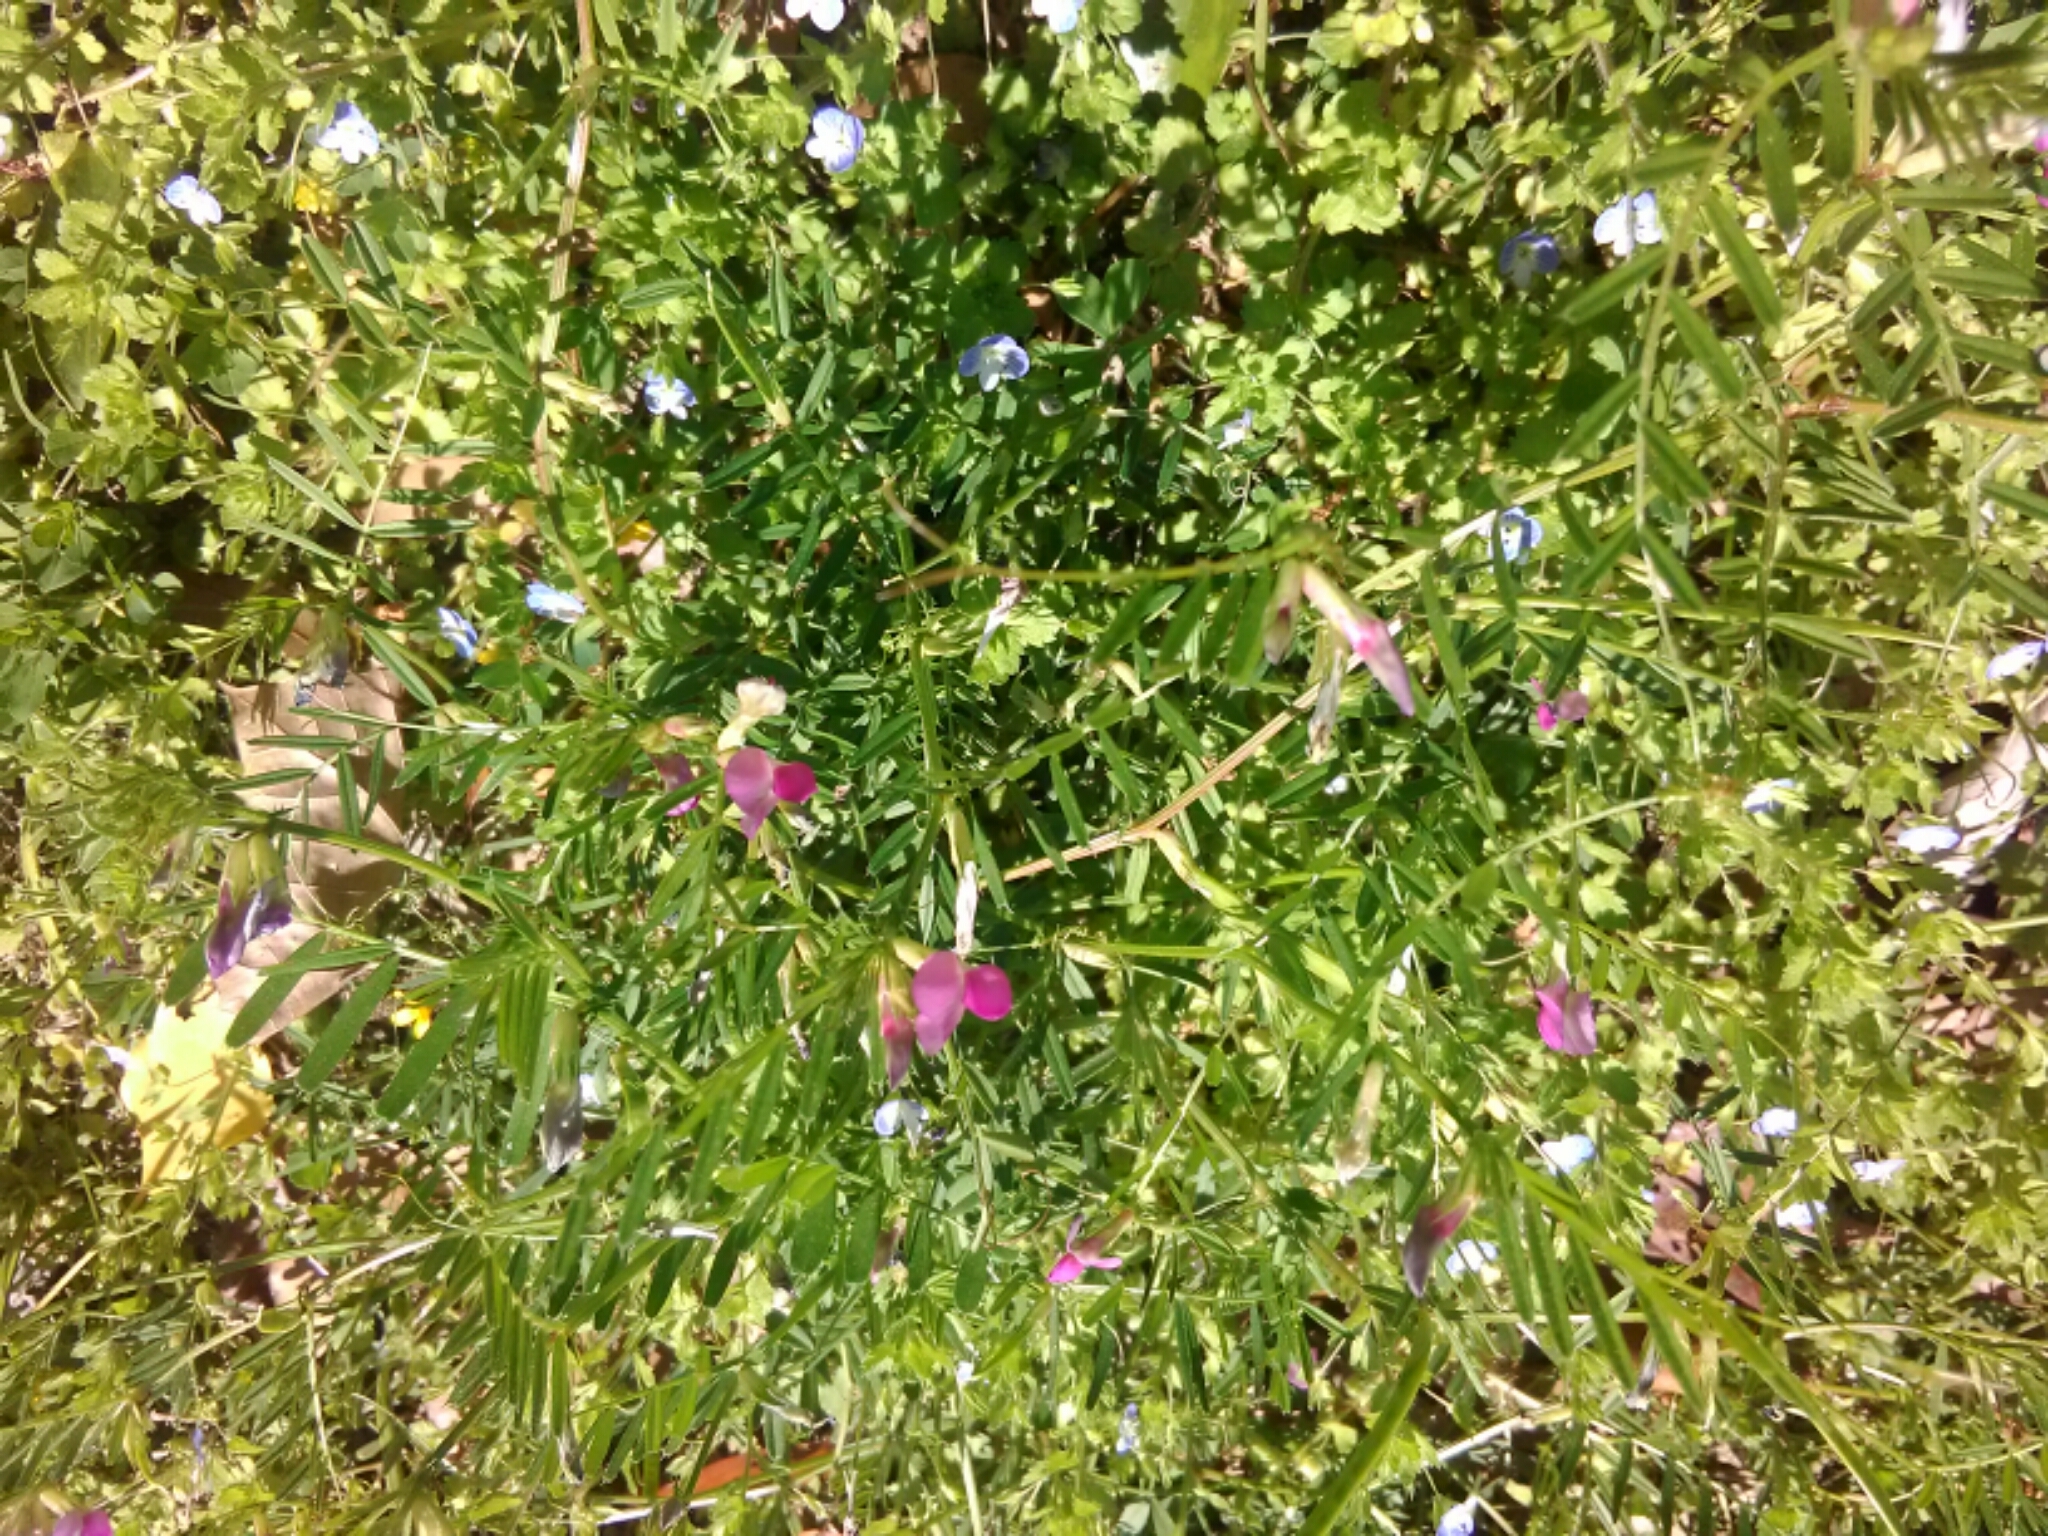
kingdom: Plantae
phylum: Tracheophyta
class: Magnoliopsida
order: Fabales
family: Fabaceae
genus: Vicia
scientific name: Vicia sativa
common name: Garden vetch
